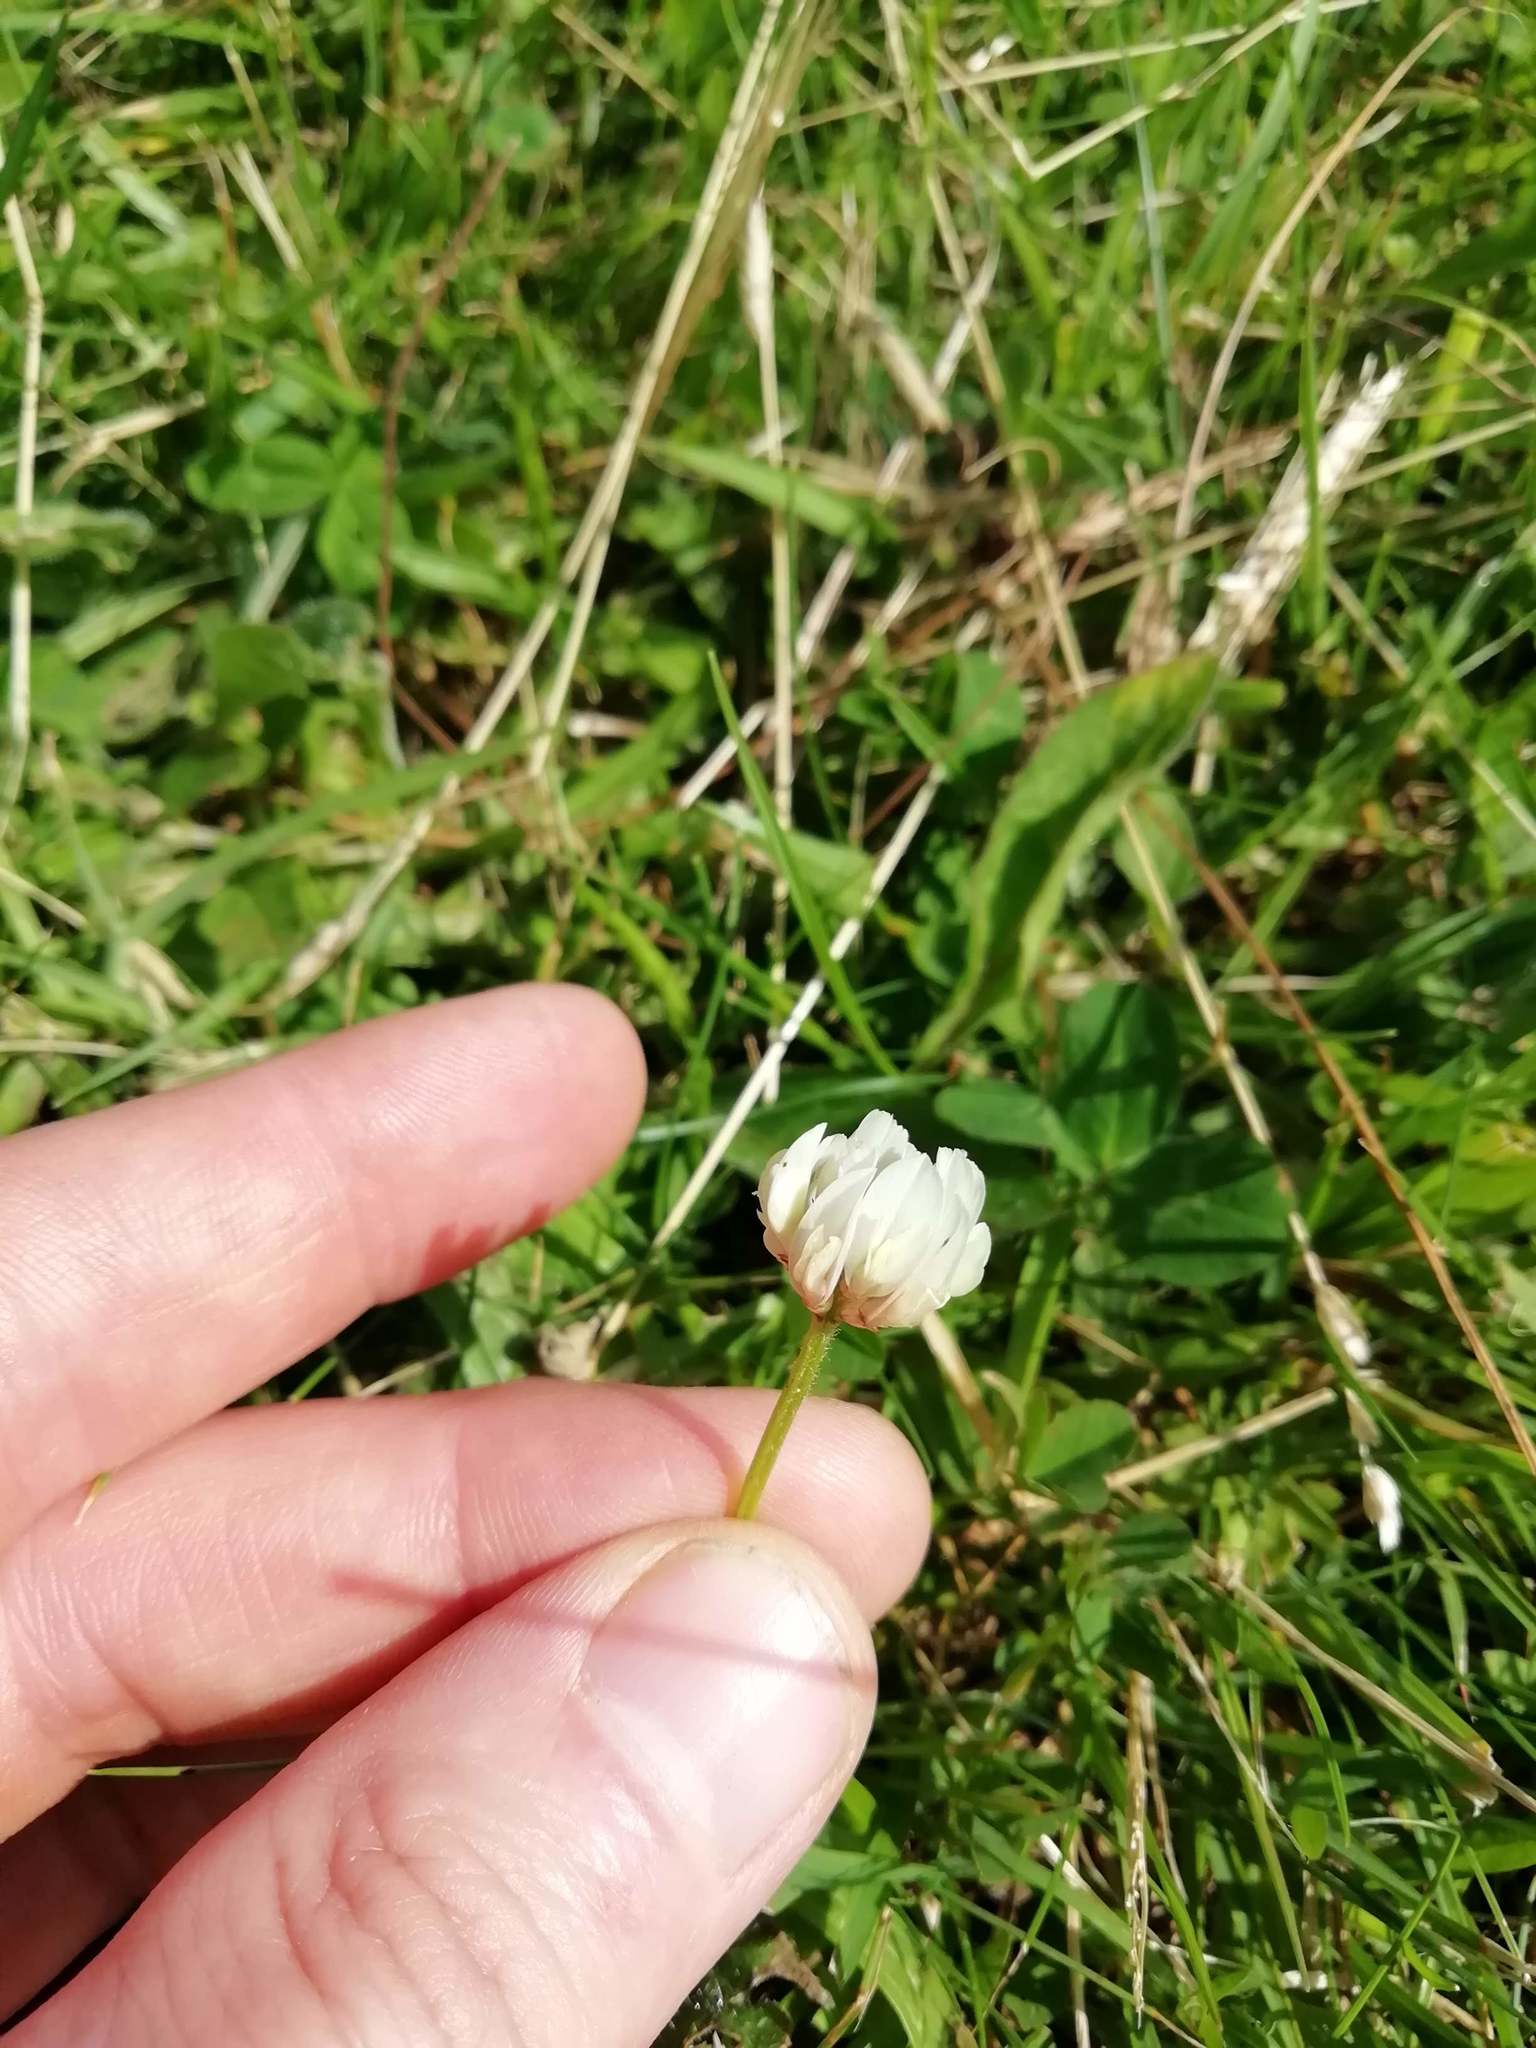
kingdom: Plantae
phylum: Tracheophyta
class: Magnoliopsida
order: Fabales
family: Fabaceae
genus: Trifolium
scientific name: Trifolium repens
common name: White clover
